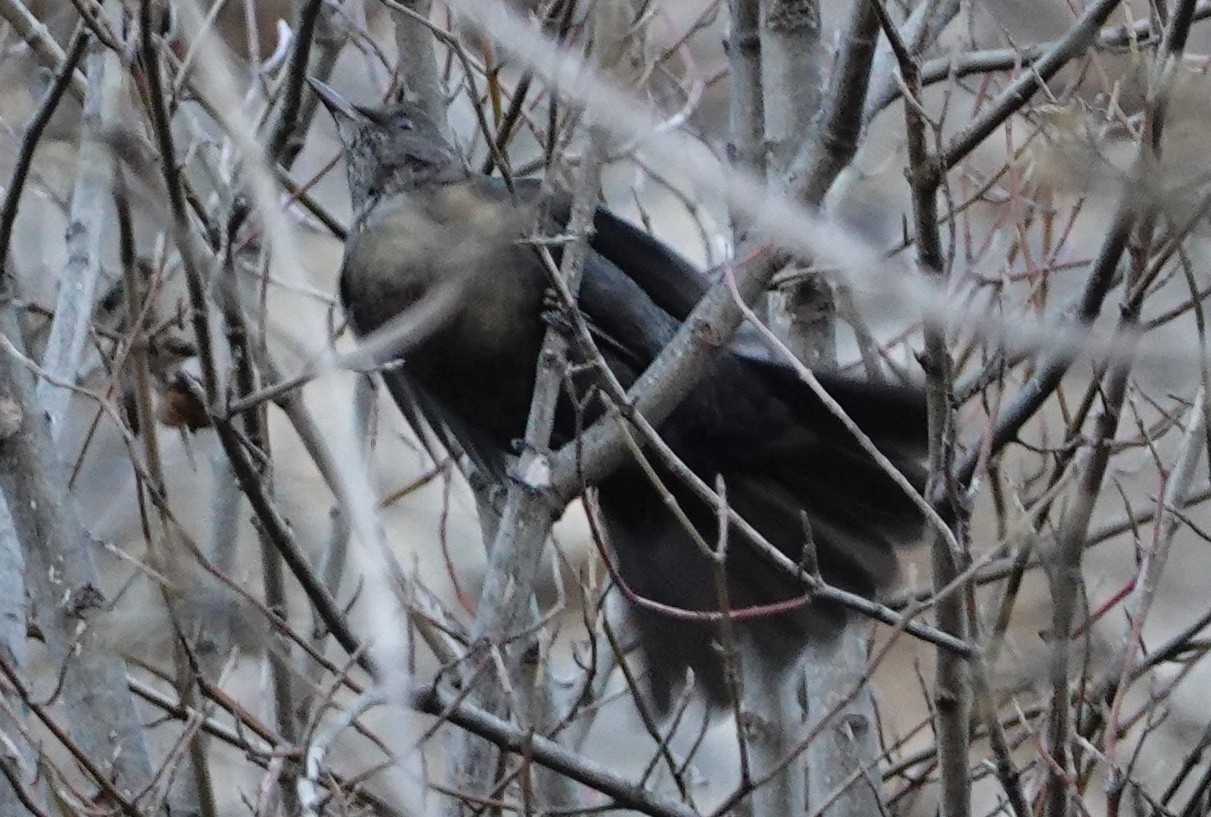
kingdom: Animalia
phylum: Chordata
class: Aves
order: Passeriformes
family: Turdidae
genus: Turdus
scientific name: Turdus merula
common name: Common blackbird
